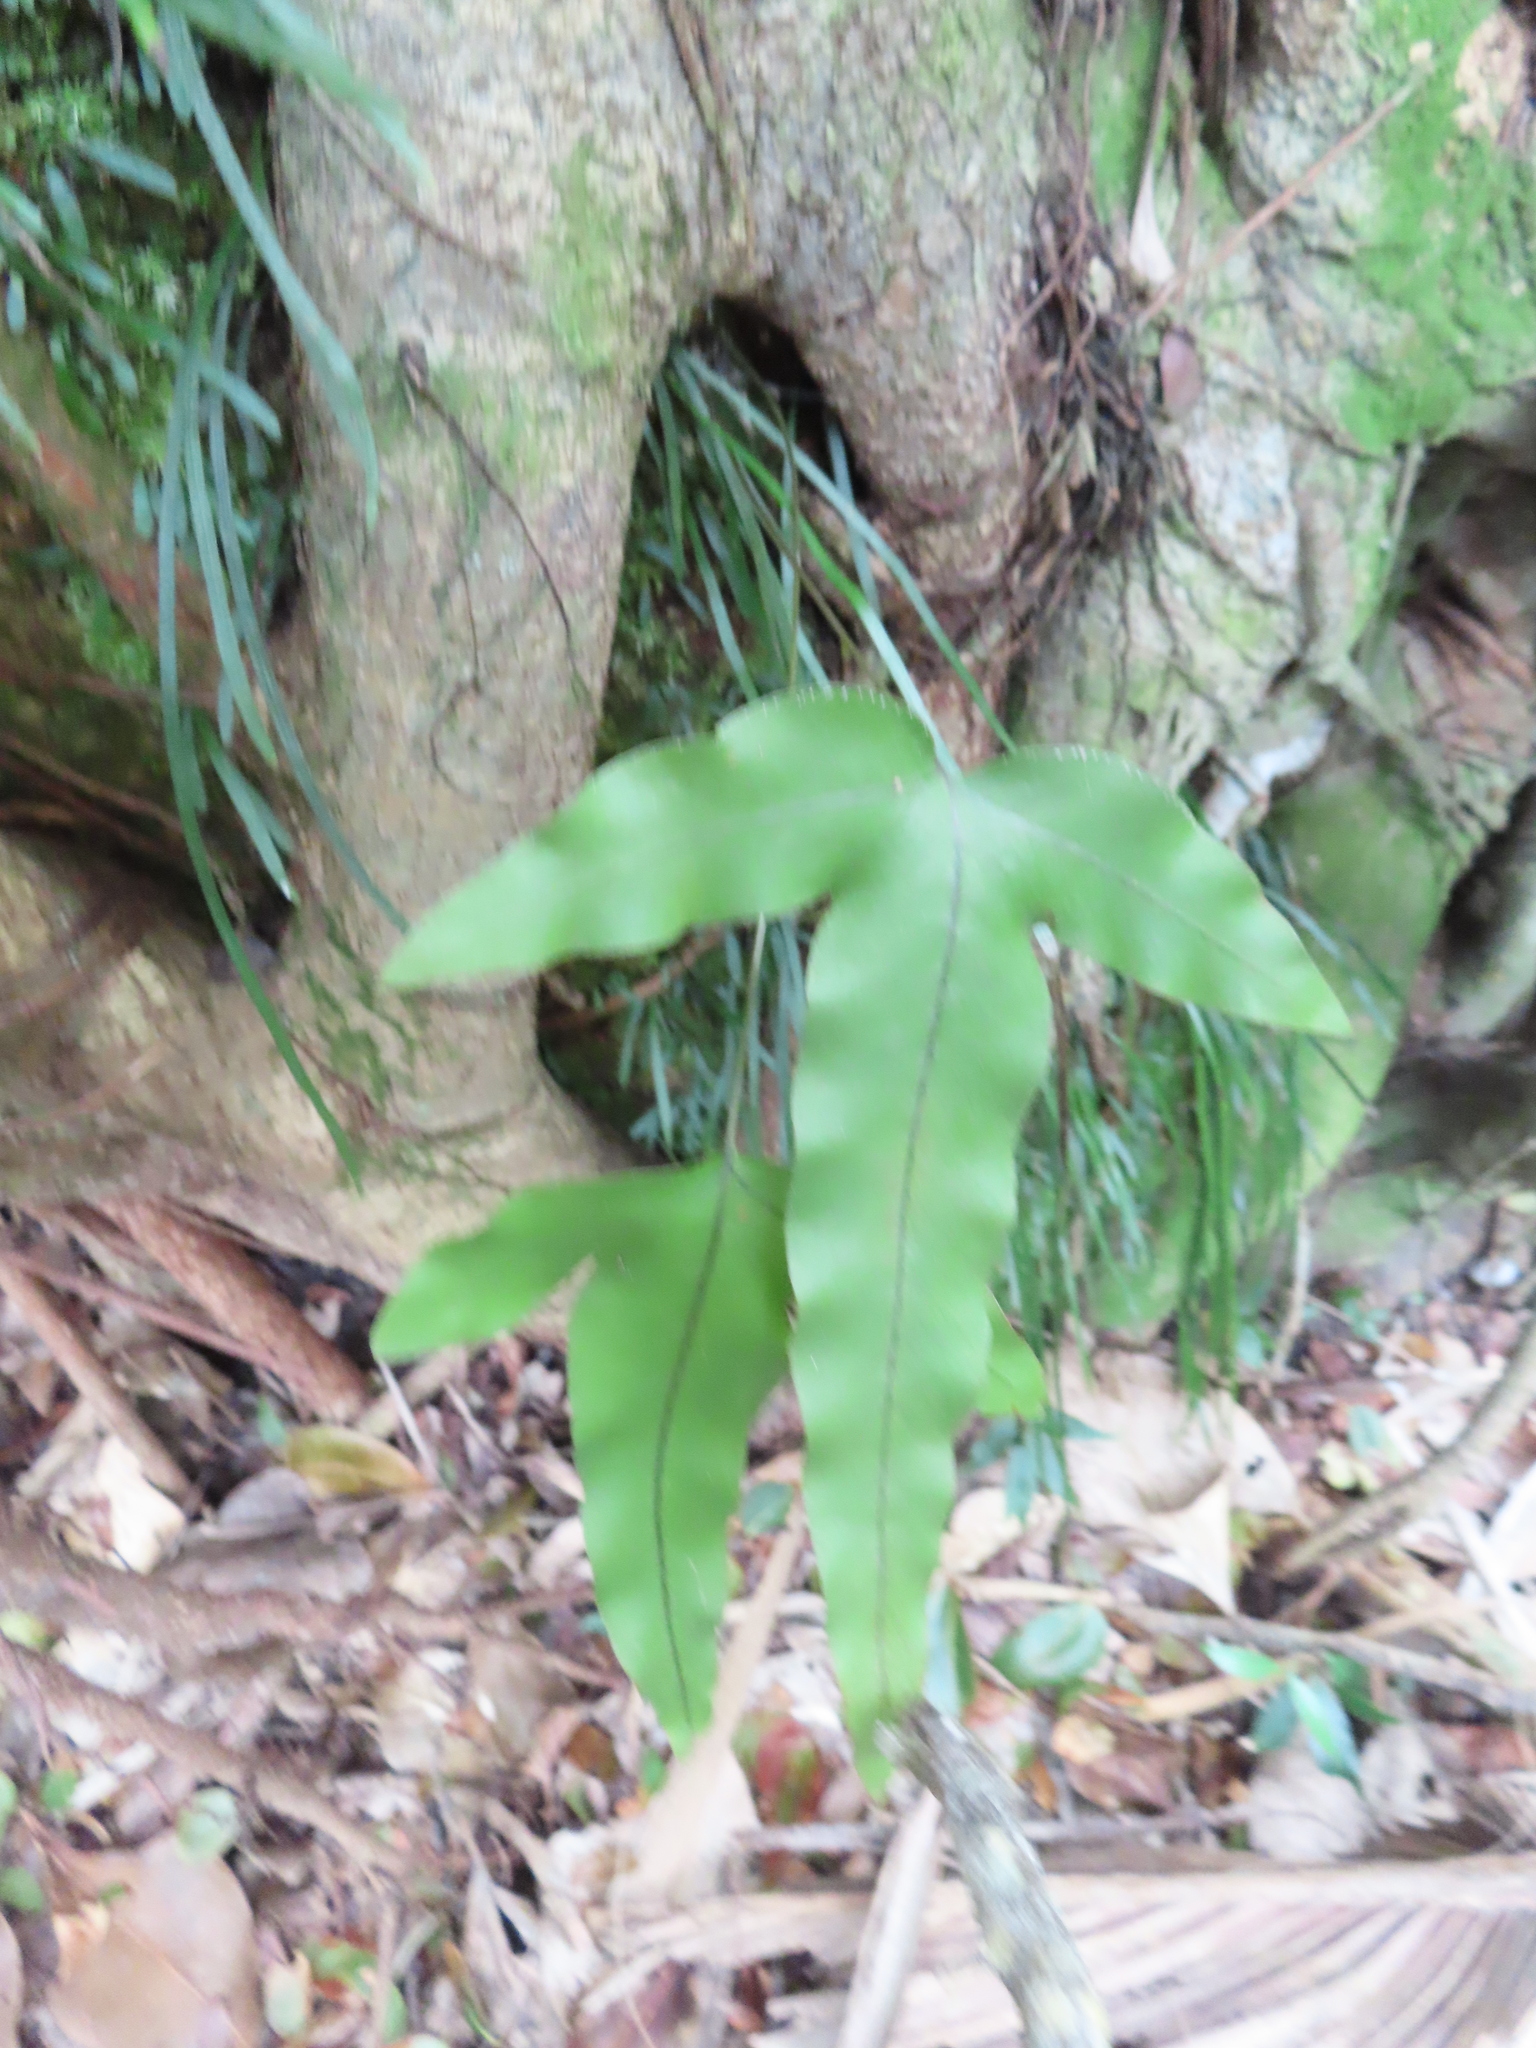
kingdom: Plantae
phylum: Tracheophyta
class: Polypodiopsida
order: Polypodiales
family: Polypodiaceae
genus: Phlebodium
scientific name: Phlebodium aureum
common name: Gold-foot fern
